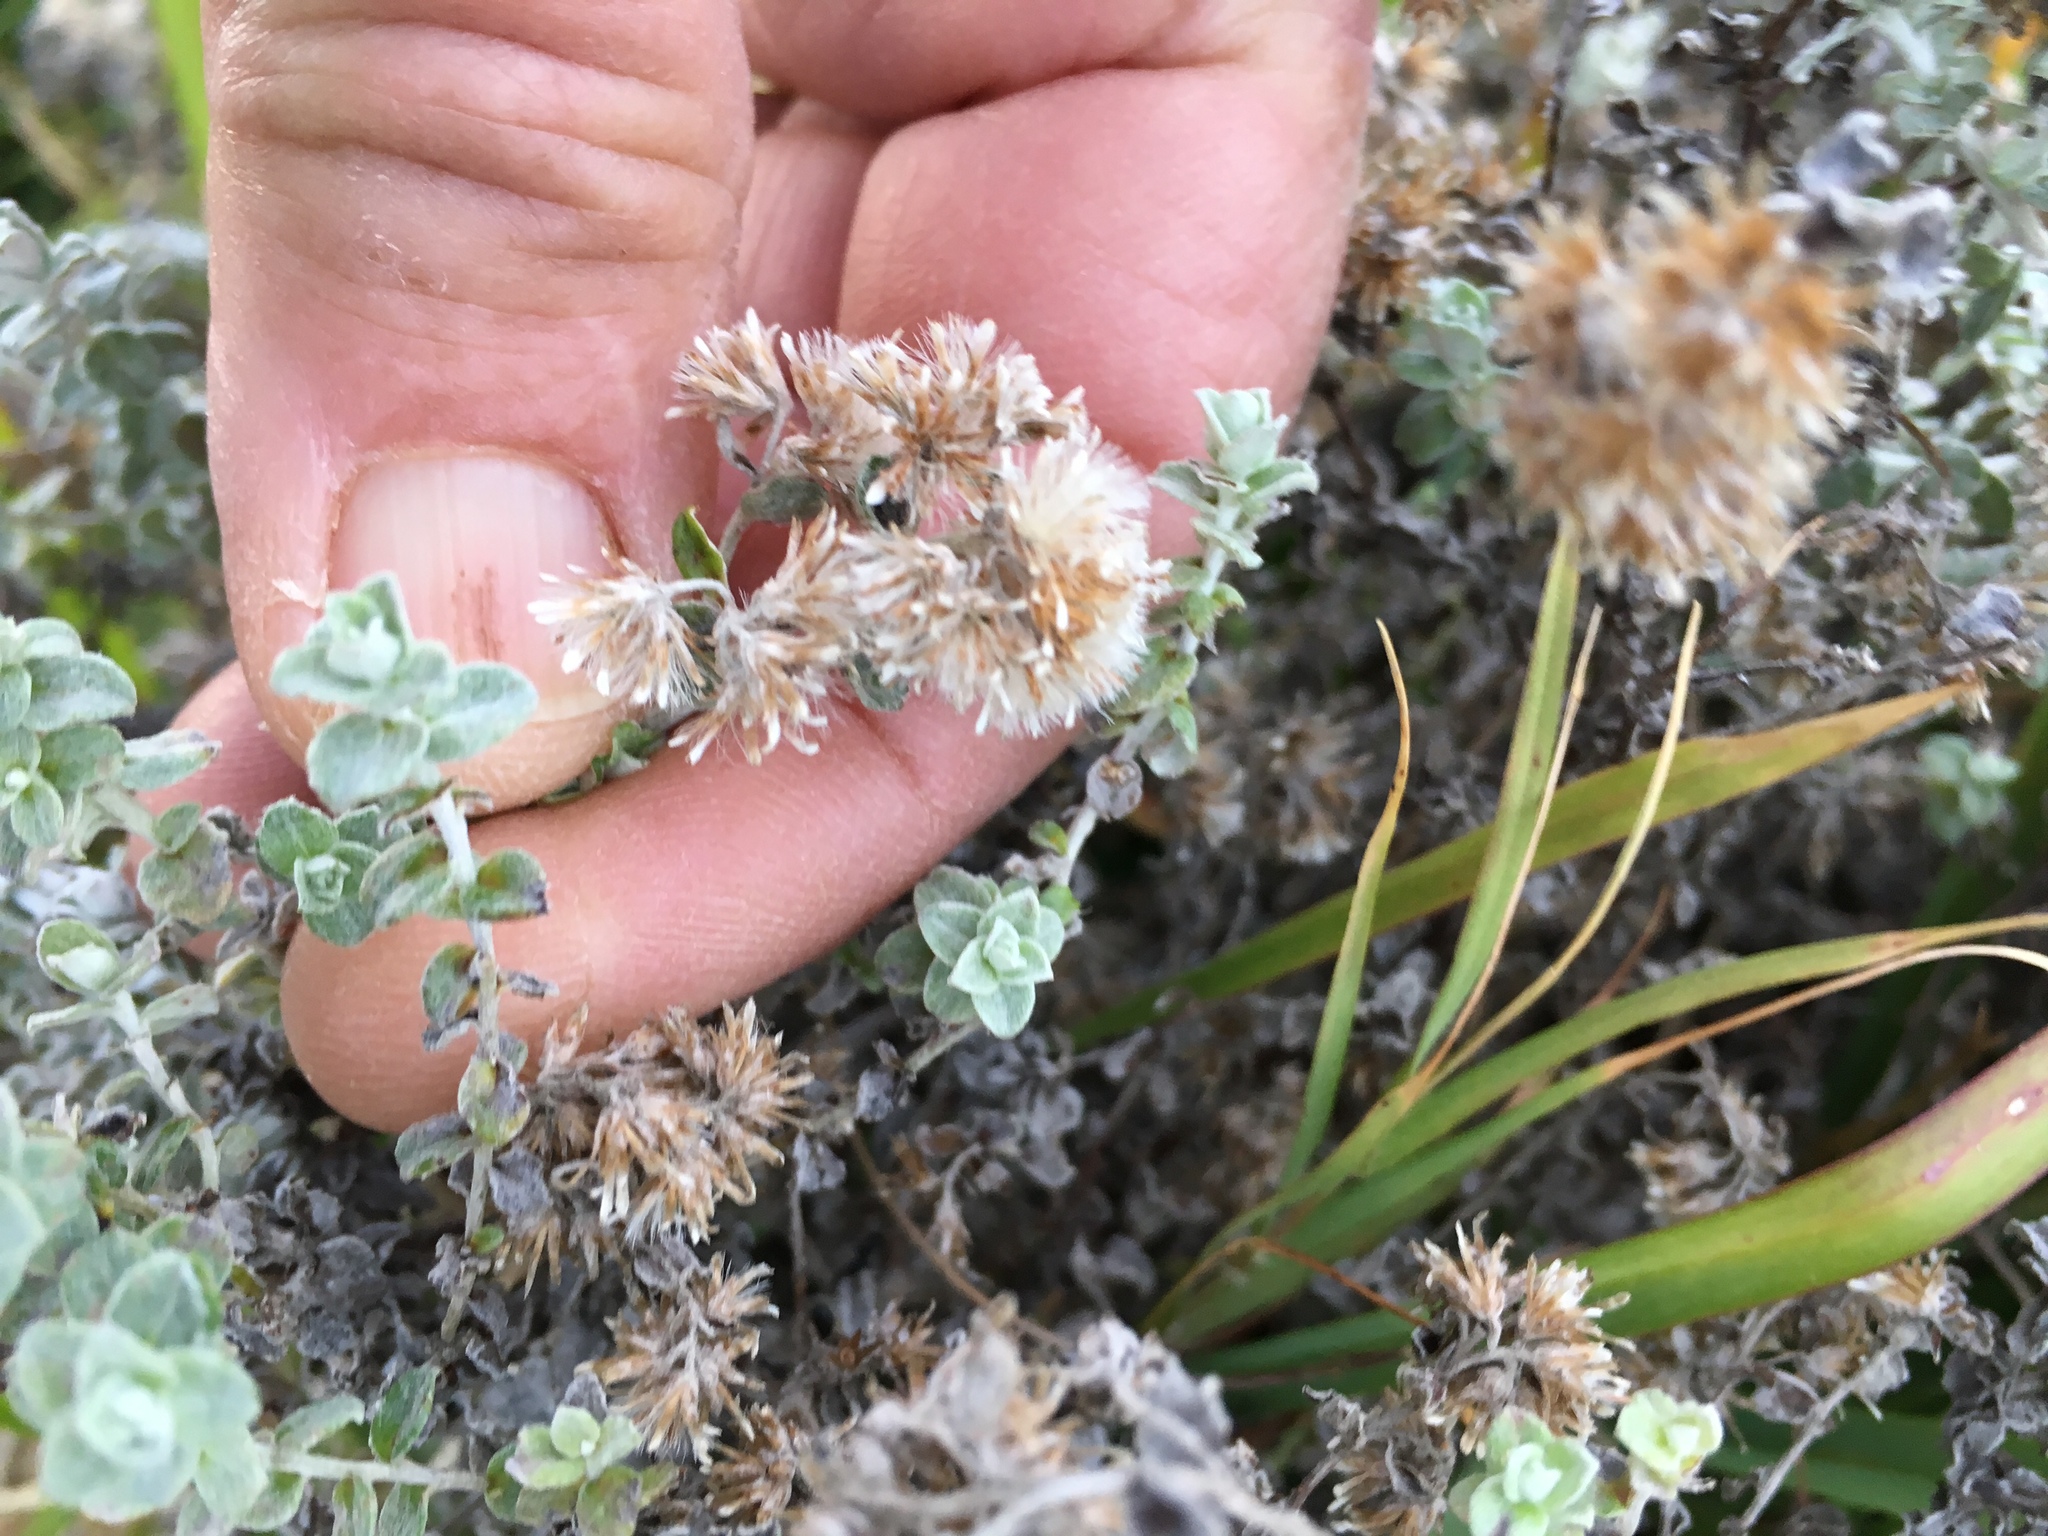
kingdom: Plantae
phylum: Tracheophyta
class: Magnoliopsida
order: Asterales
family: Asteraceae
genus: Plecostachys
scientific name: Plecostachys serpyllifolia
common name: Petite licorice
